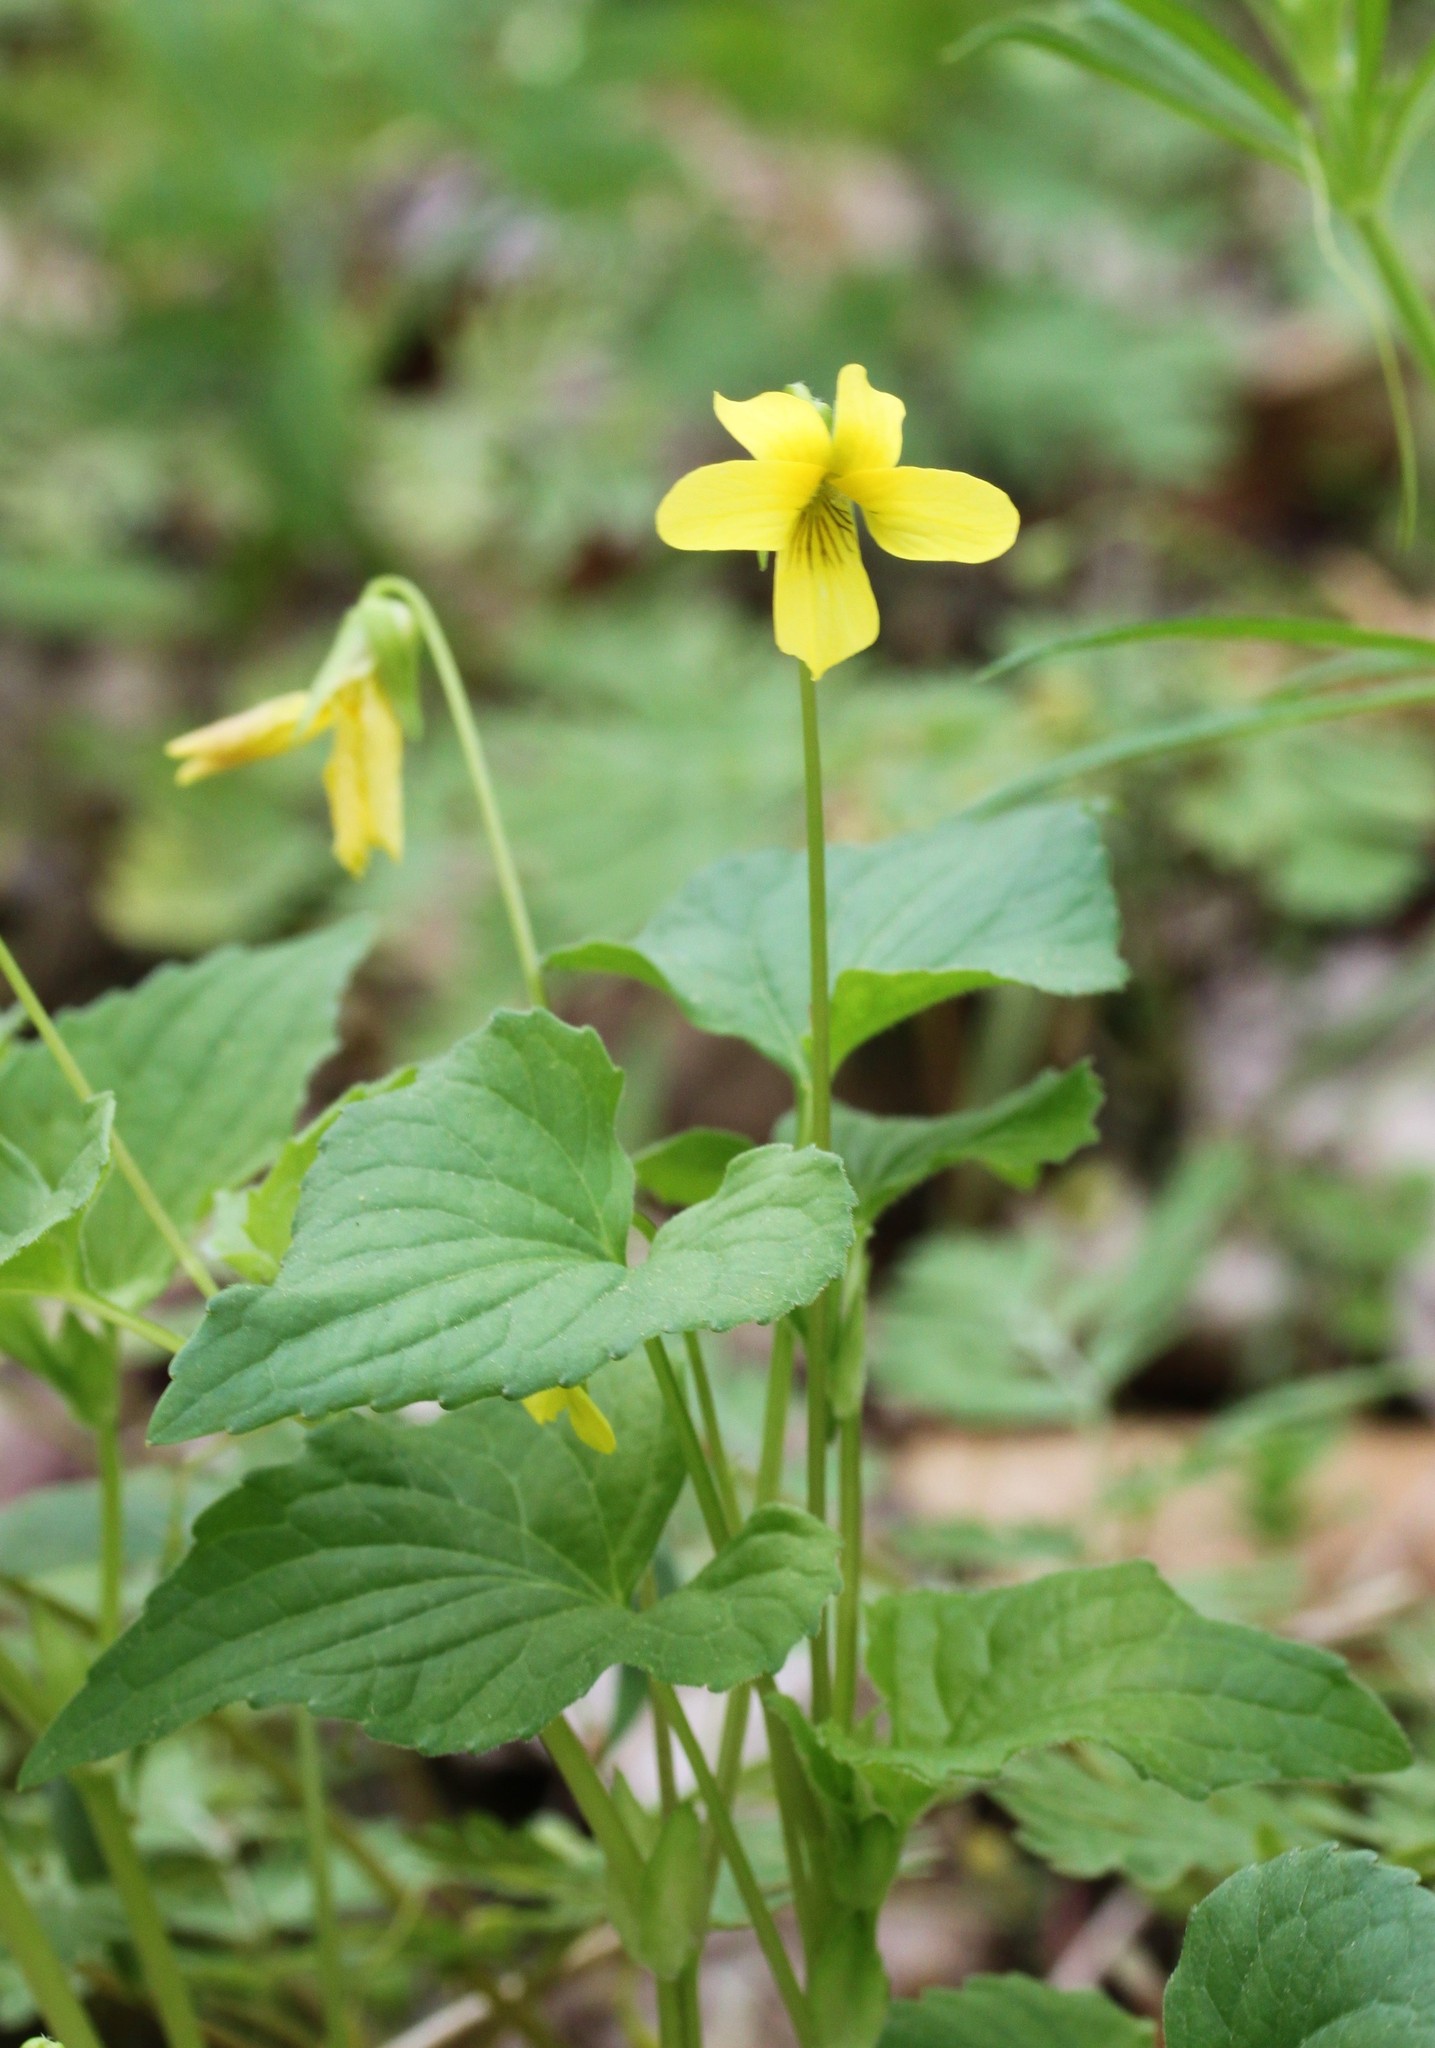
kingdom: Plantae
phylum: Tracheophyta
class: Magnoliopsida
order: Malpighiales
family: Violaceae
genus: Viola
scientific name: Viola eriocarpa
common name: Smooth yellow violet
